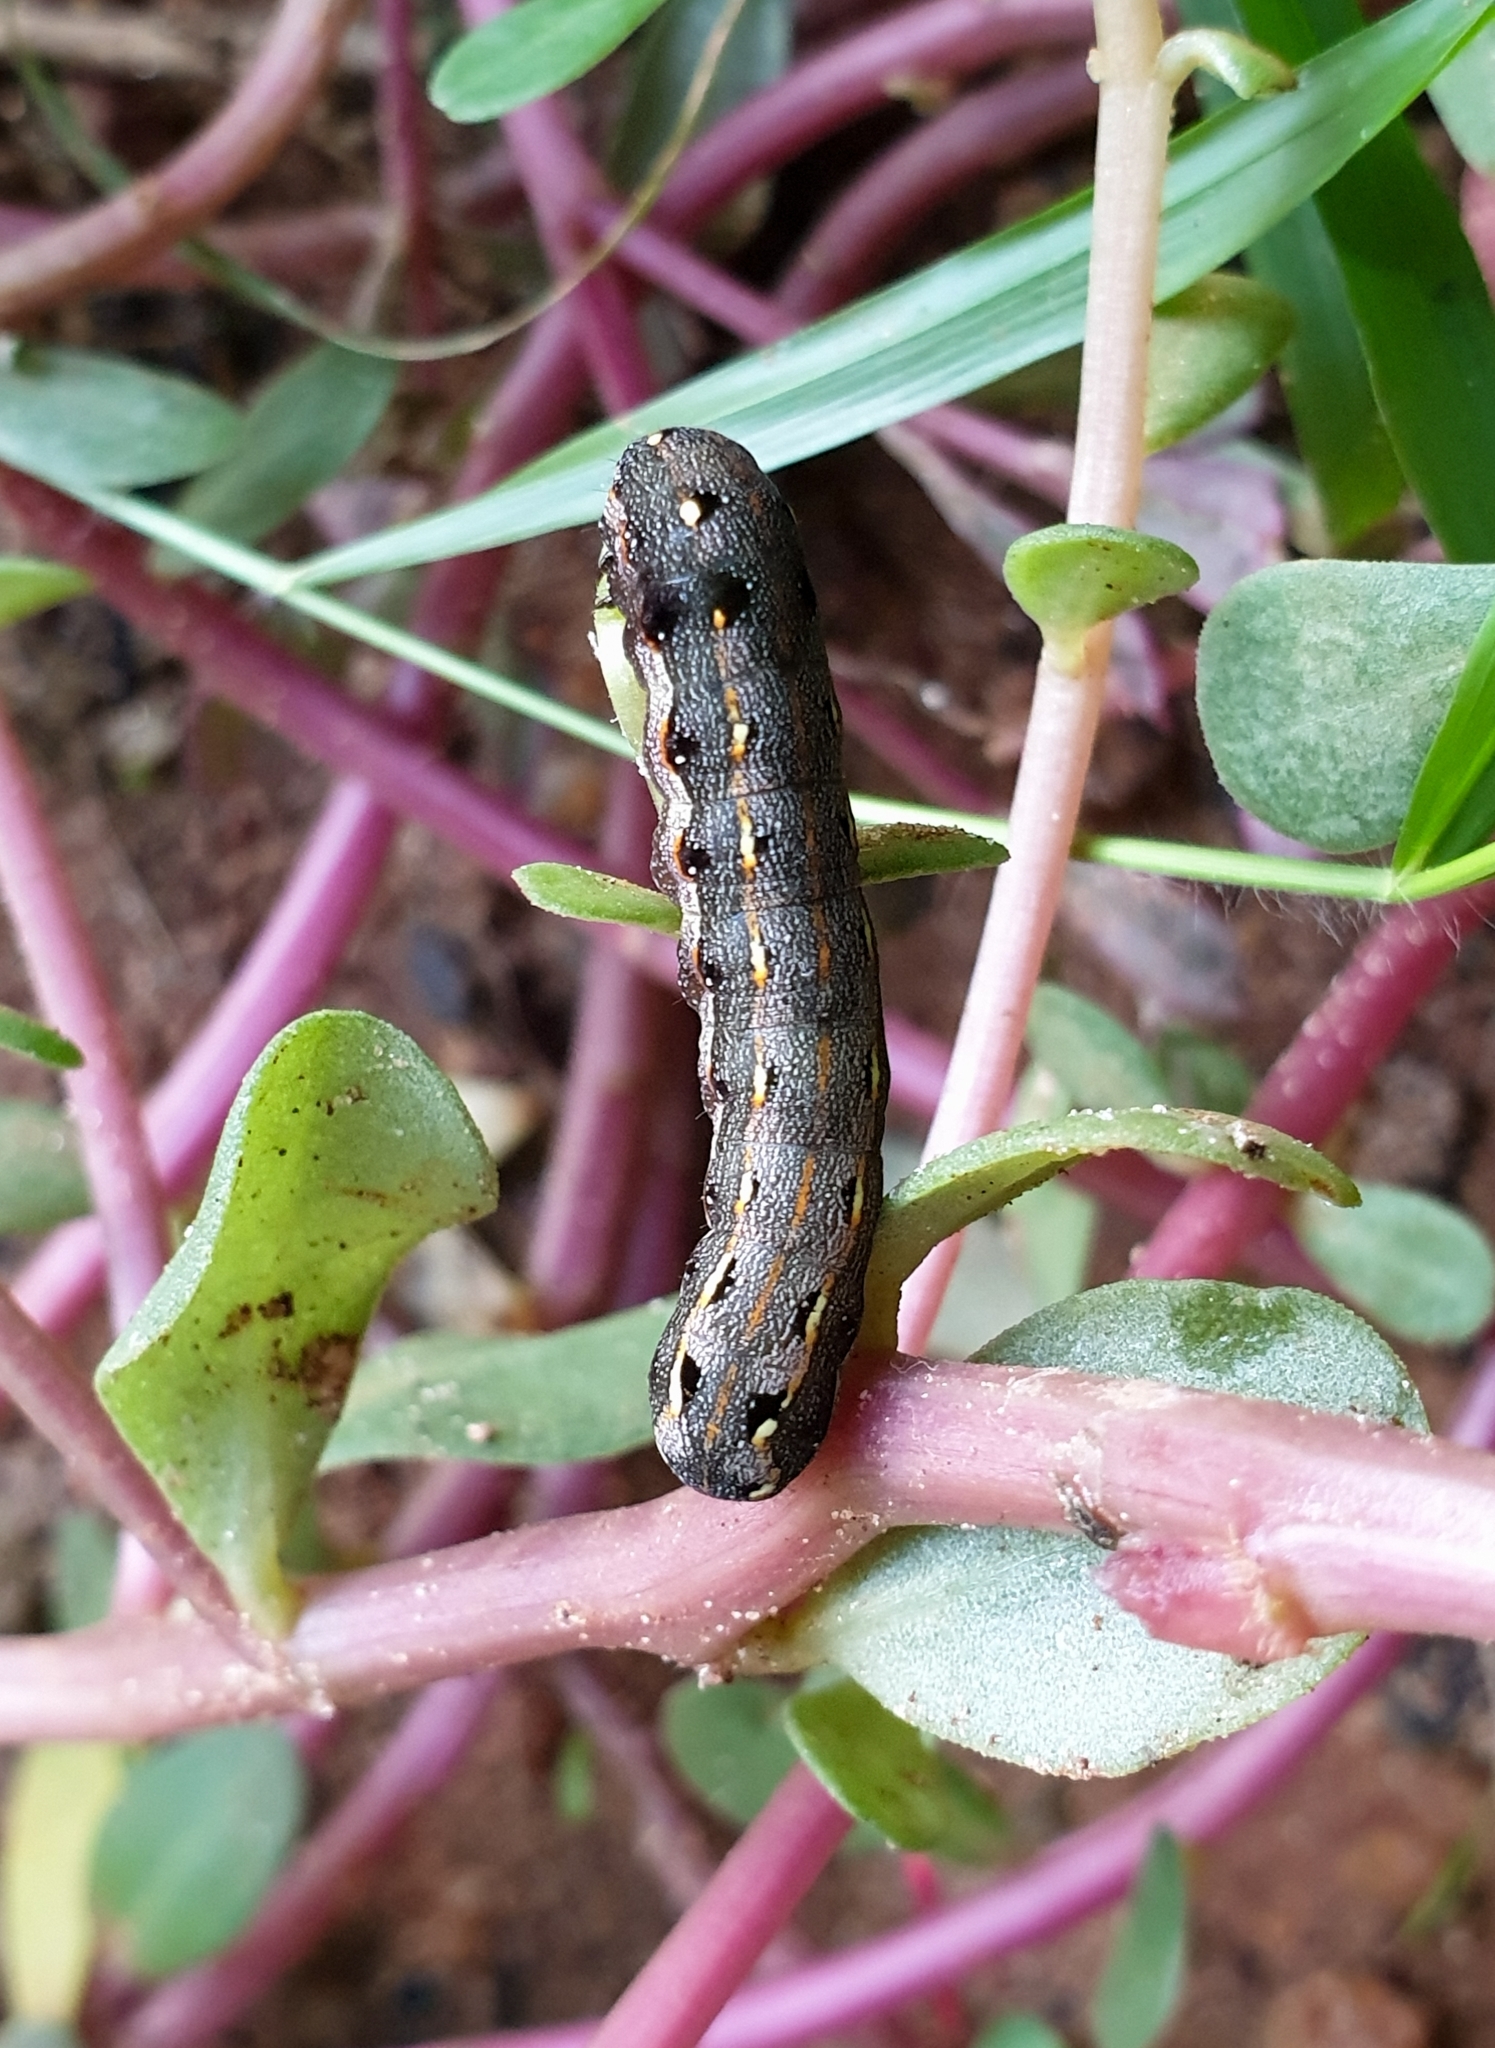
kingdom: Animalia
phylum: Arthropoda
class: Insecta
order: Lepidoptera
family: Noctuidae
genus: Spodoptera
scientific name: Spodoptera litura
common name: Asian cotton leafworm
